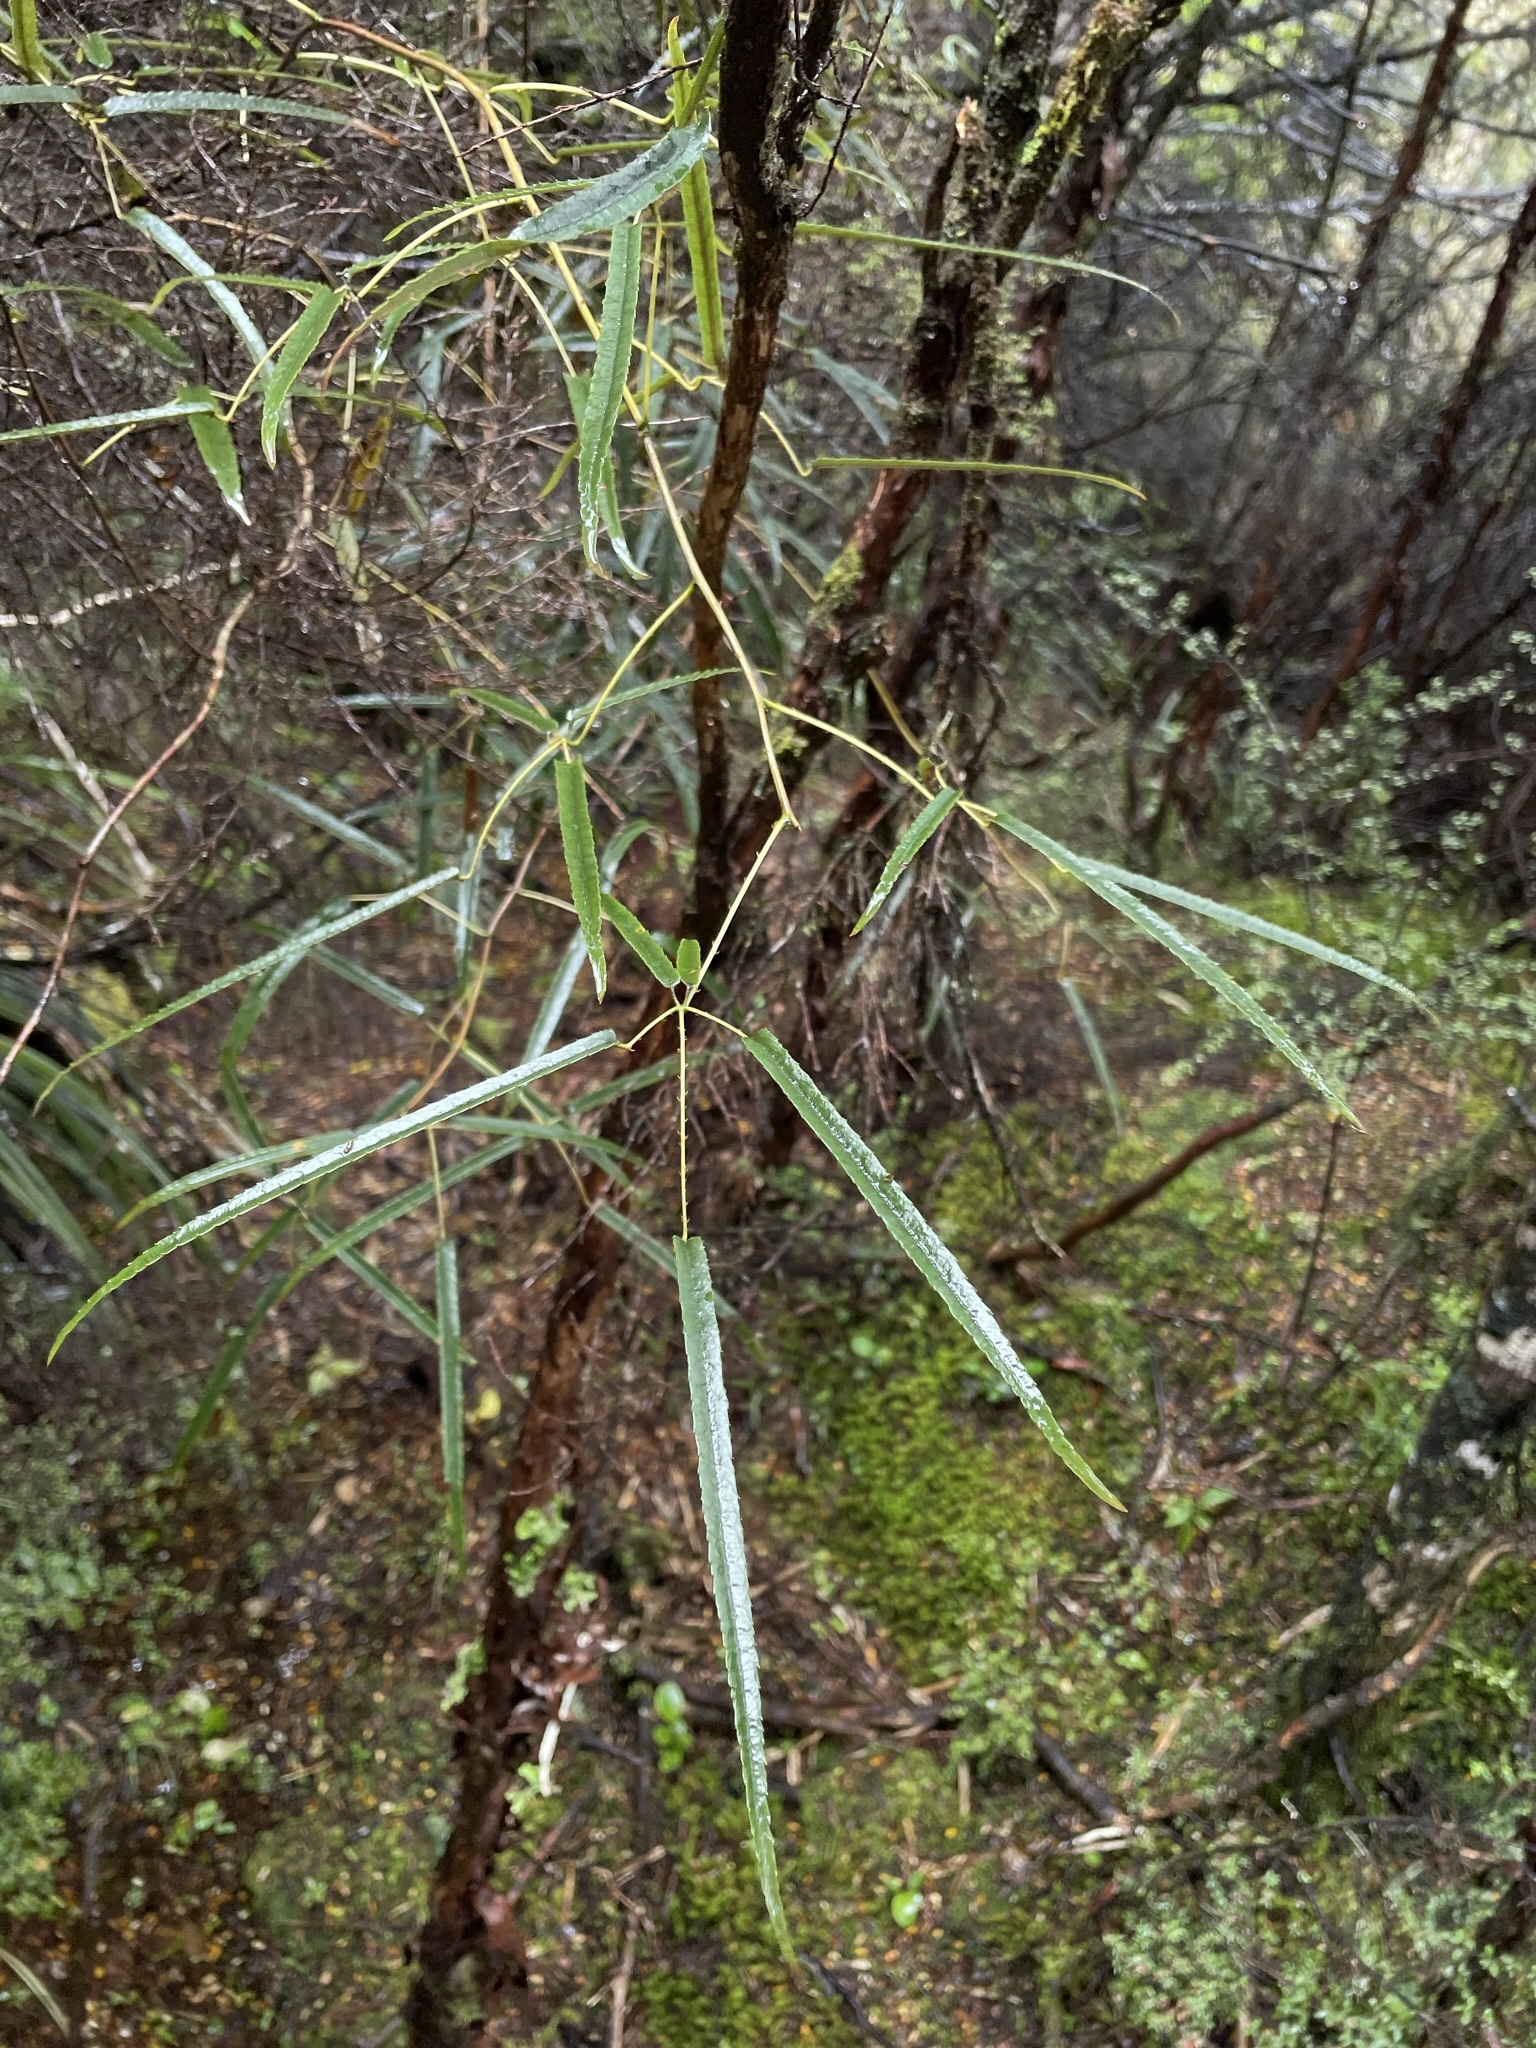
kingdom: Plantae
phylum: Tracheophyta
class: Magnoliopsida
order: Rosales
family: Rosaceae
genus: Rubus
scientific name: Rubus cissoides
